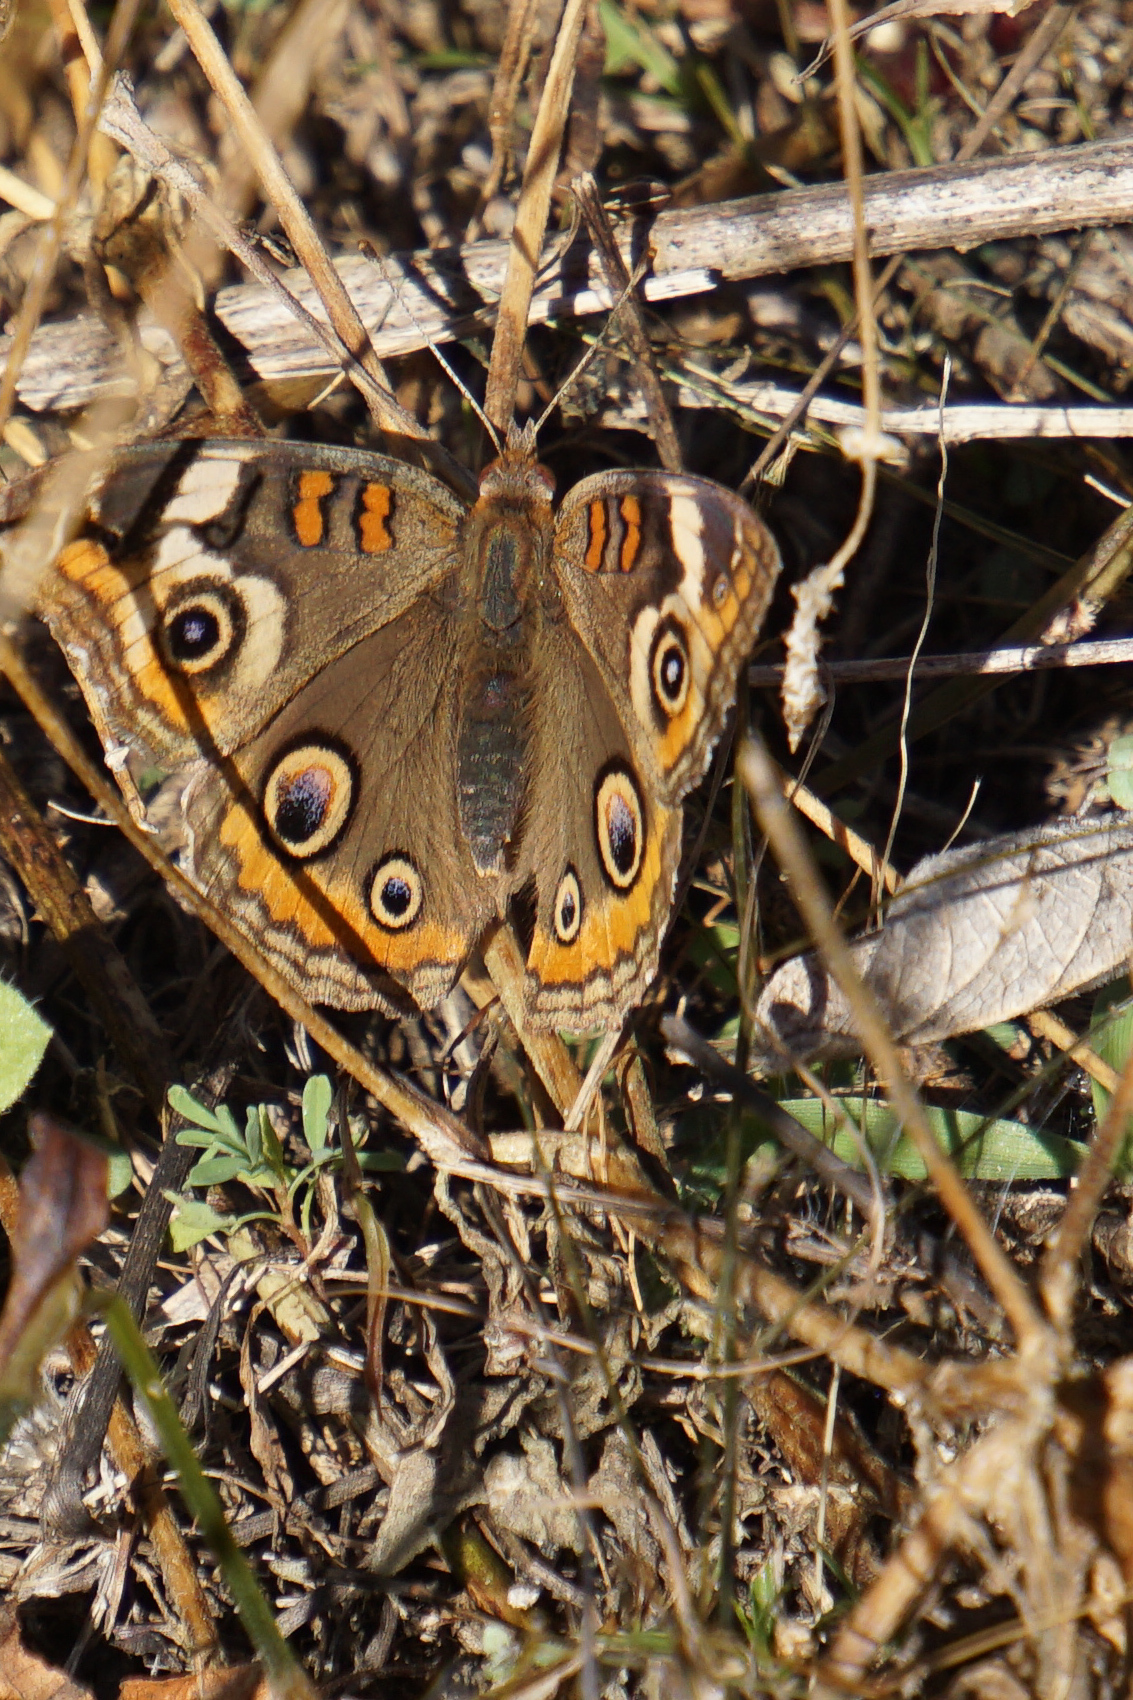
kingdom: Animalia
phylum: Arthropoda
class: Insecta
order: Lepidoptera
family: Nymphalidae
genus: Junonia
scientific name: Junonia coenia
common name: Common buckeye
